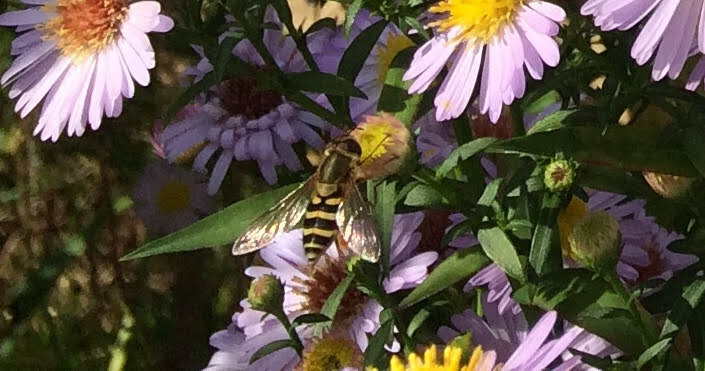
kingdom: Animalia
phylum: Arthropoda
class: Insecta
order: Diptera
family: Syrphidae
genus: Syrphus
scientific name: Syrphus
